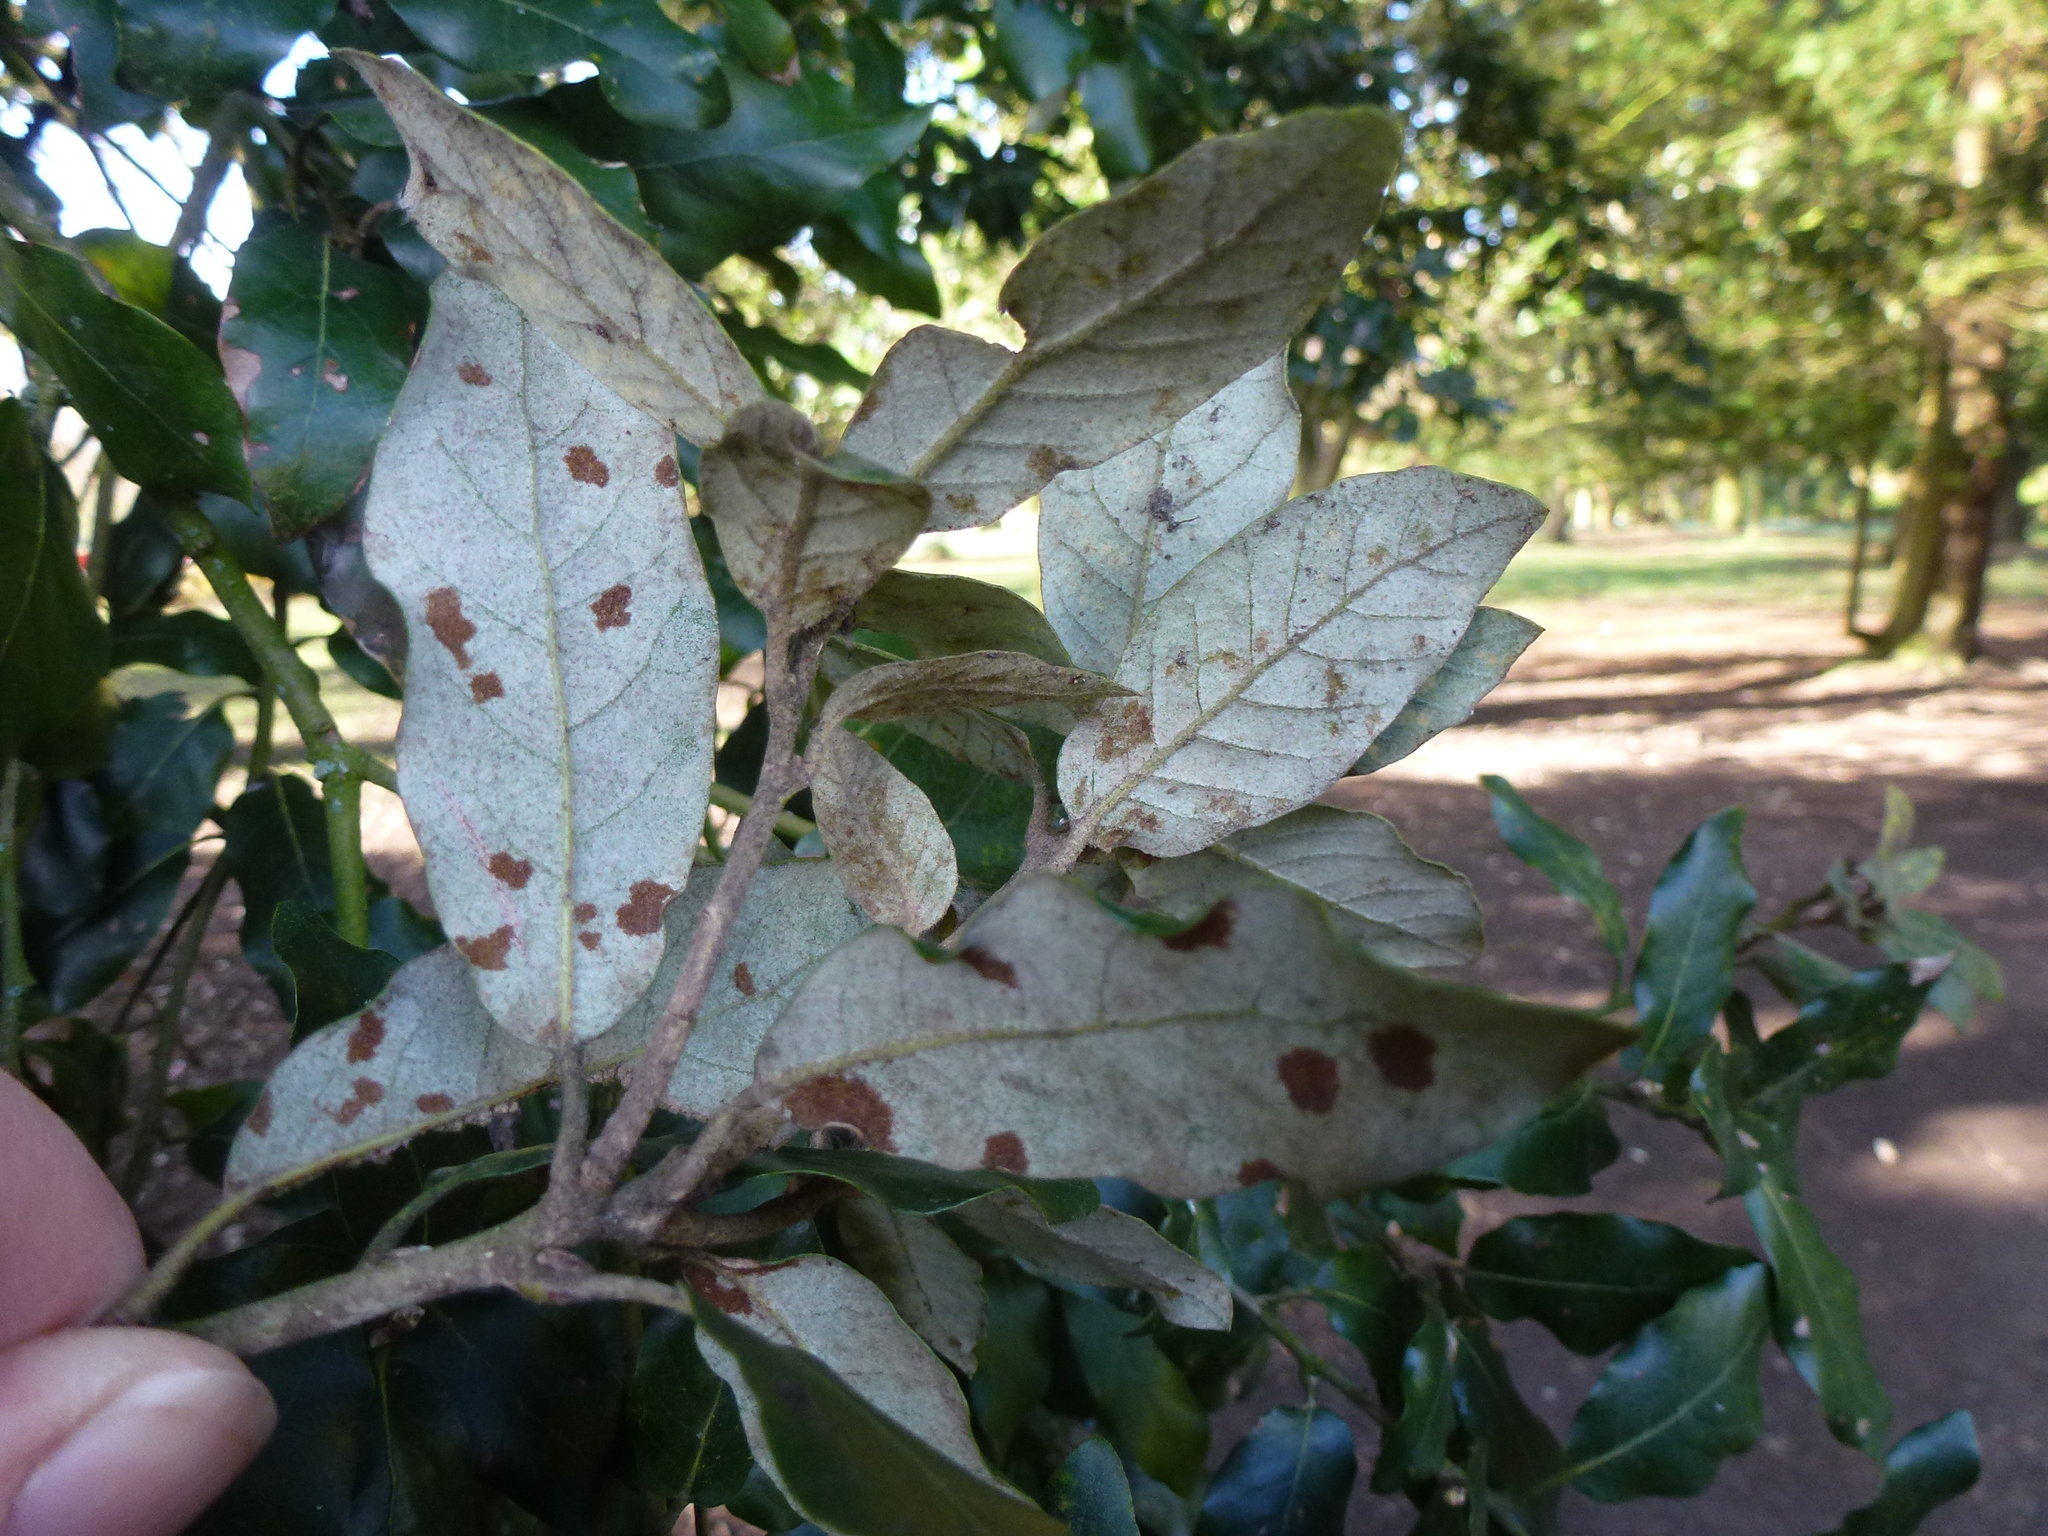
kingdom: Animalia
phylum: Arthropoda
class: Arachnida
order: Trombidiformes
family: Eriophyidae
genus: Aceria
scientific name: Aceria ilicis
